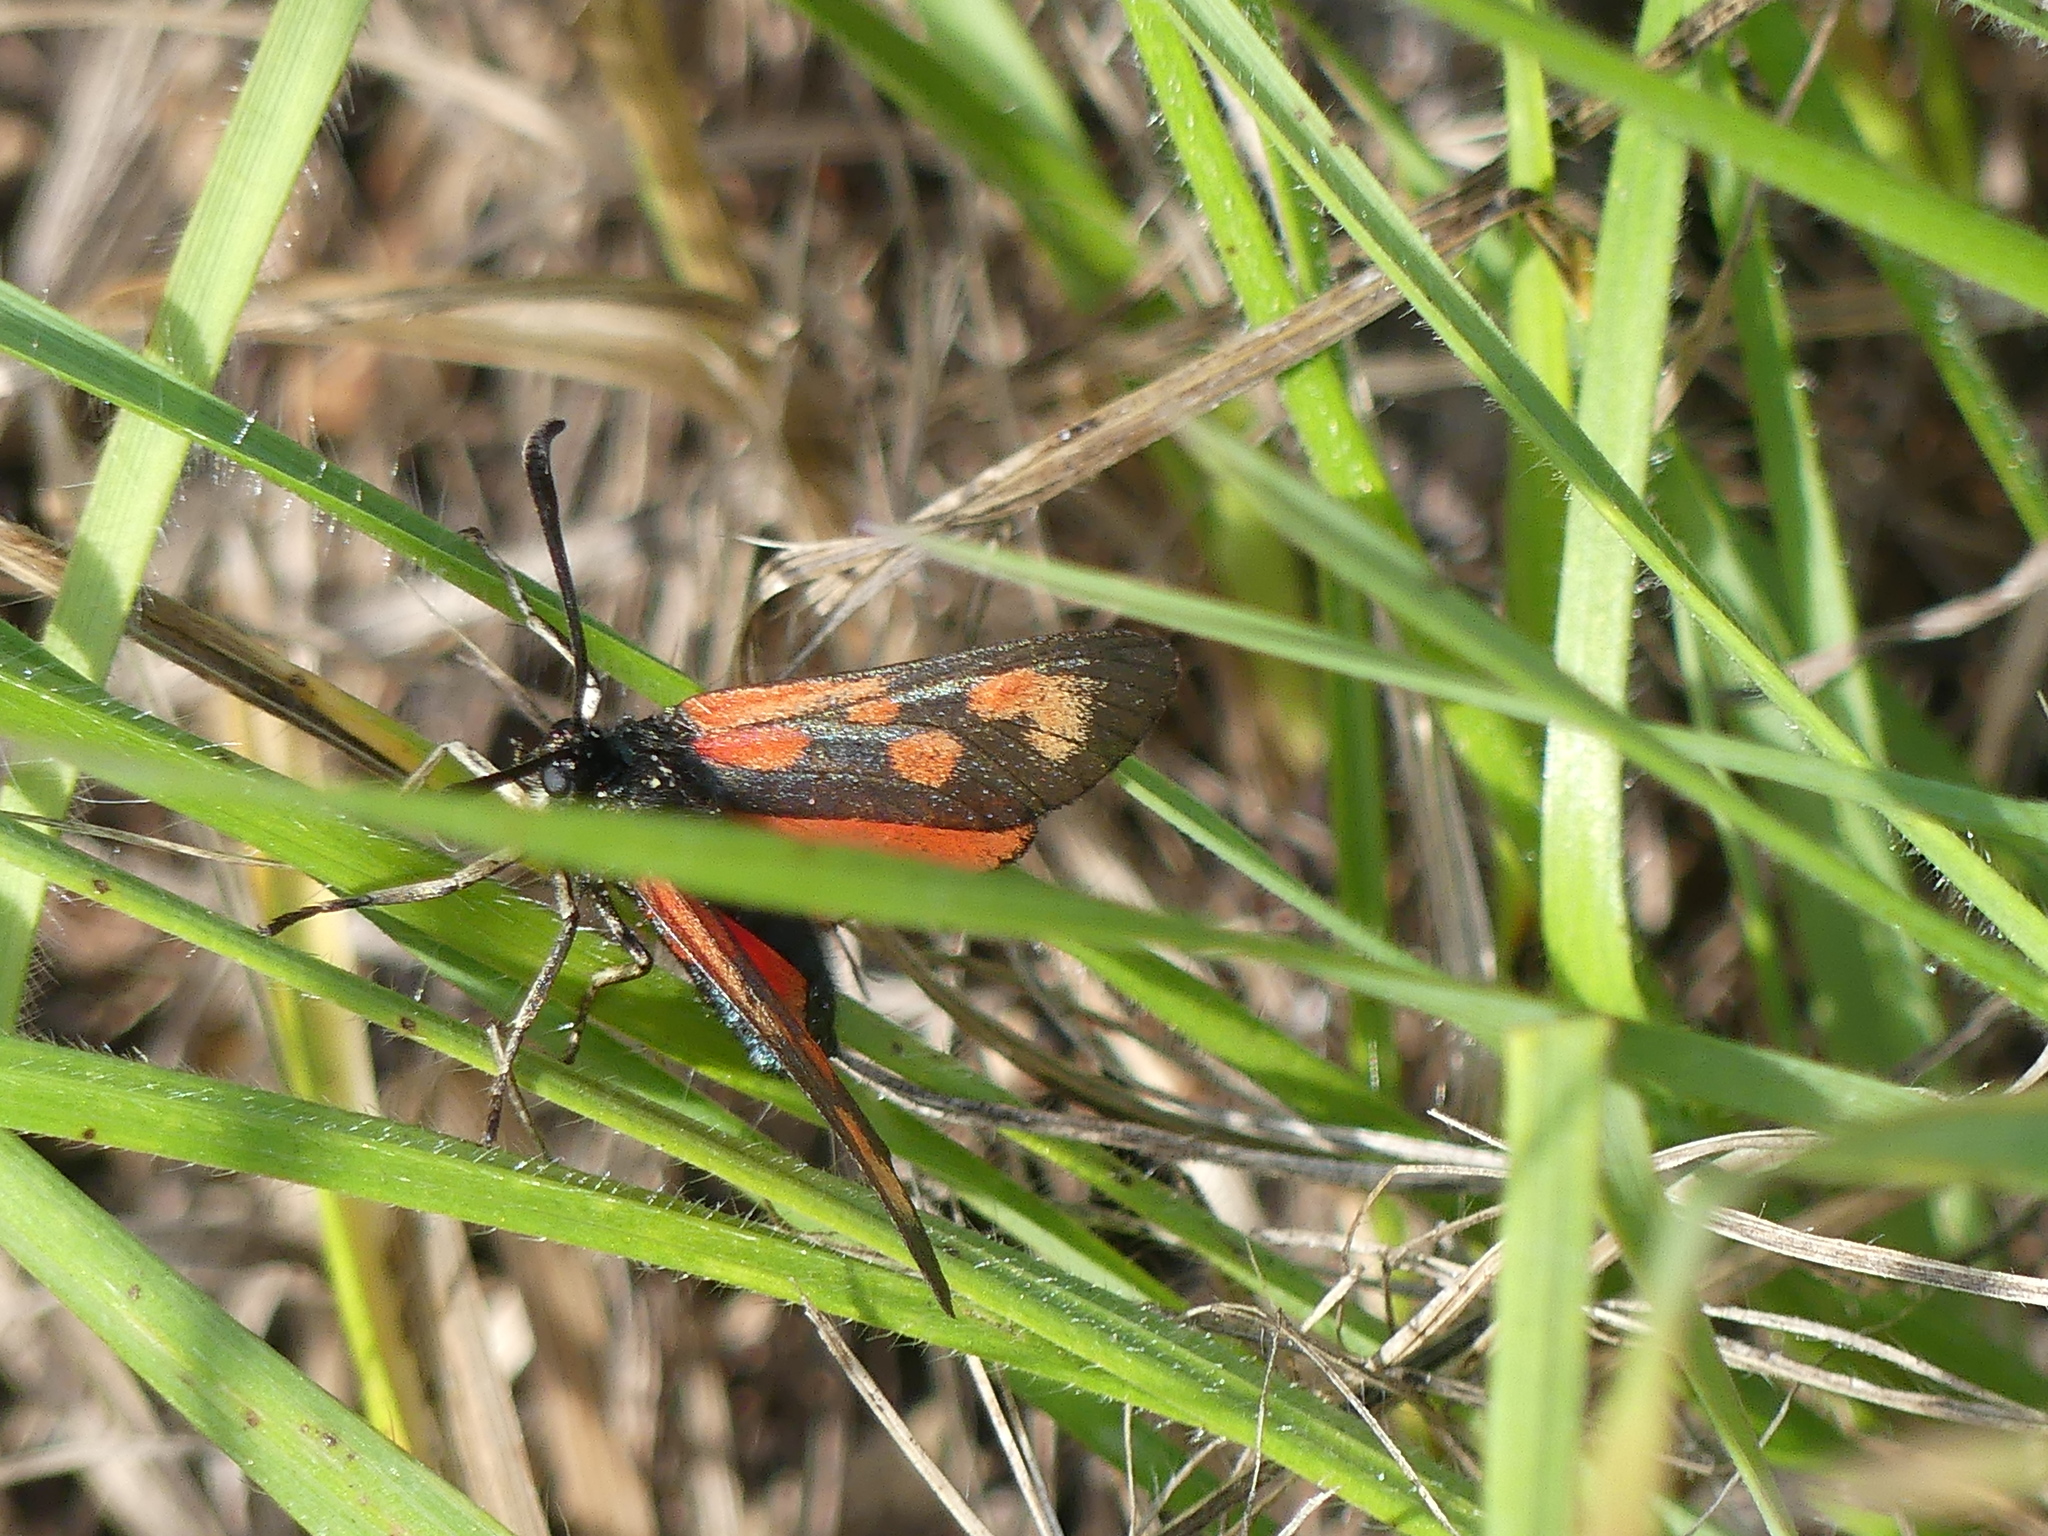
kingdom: Animalia
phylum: Arthropoda
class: Insecta
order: Lepidoptera
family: Zygaenidae
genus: Zygaena
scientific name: Zygaena loti
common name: Slender scotch burnet
